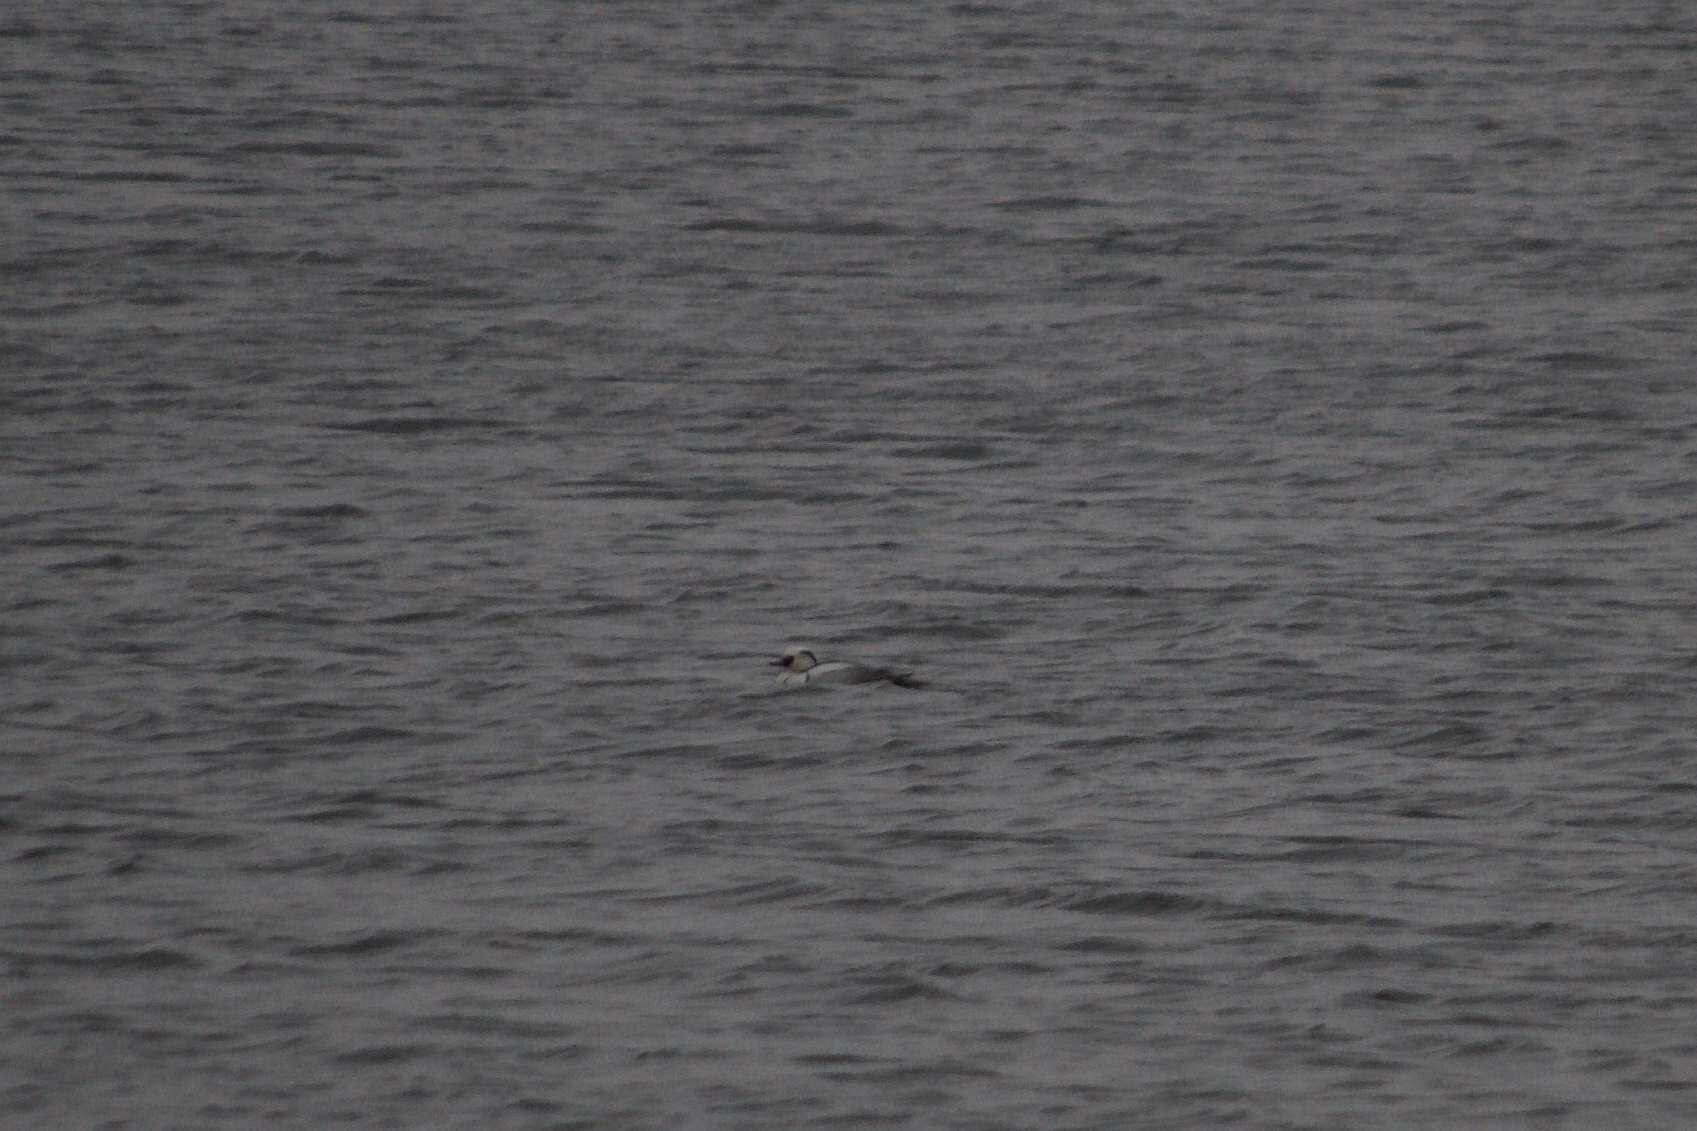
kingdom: Animalia
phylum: Chordata
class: Aves
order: Anseriformes
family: Anatidae
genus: Mergellus
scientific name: Mergellus albellus
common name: Smew
